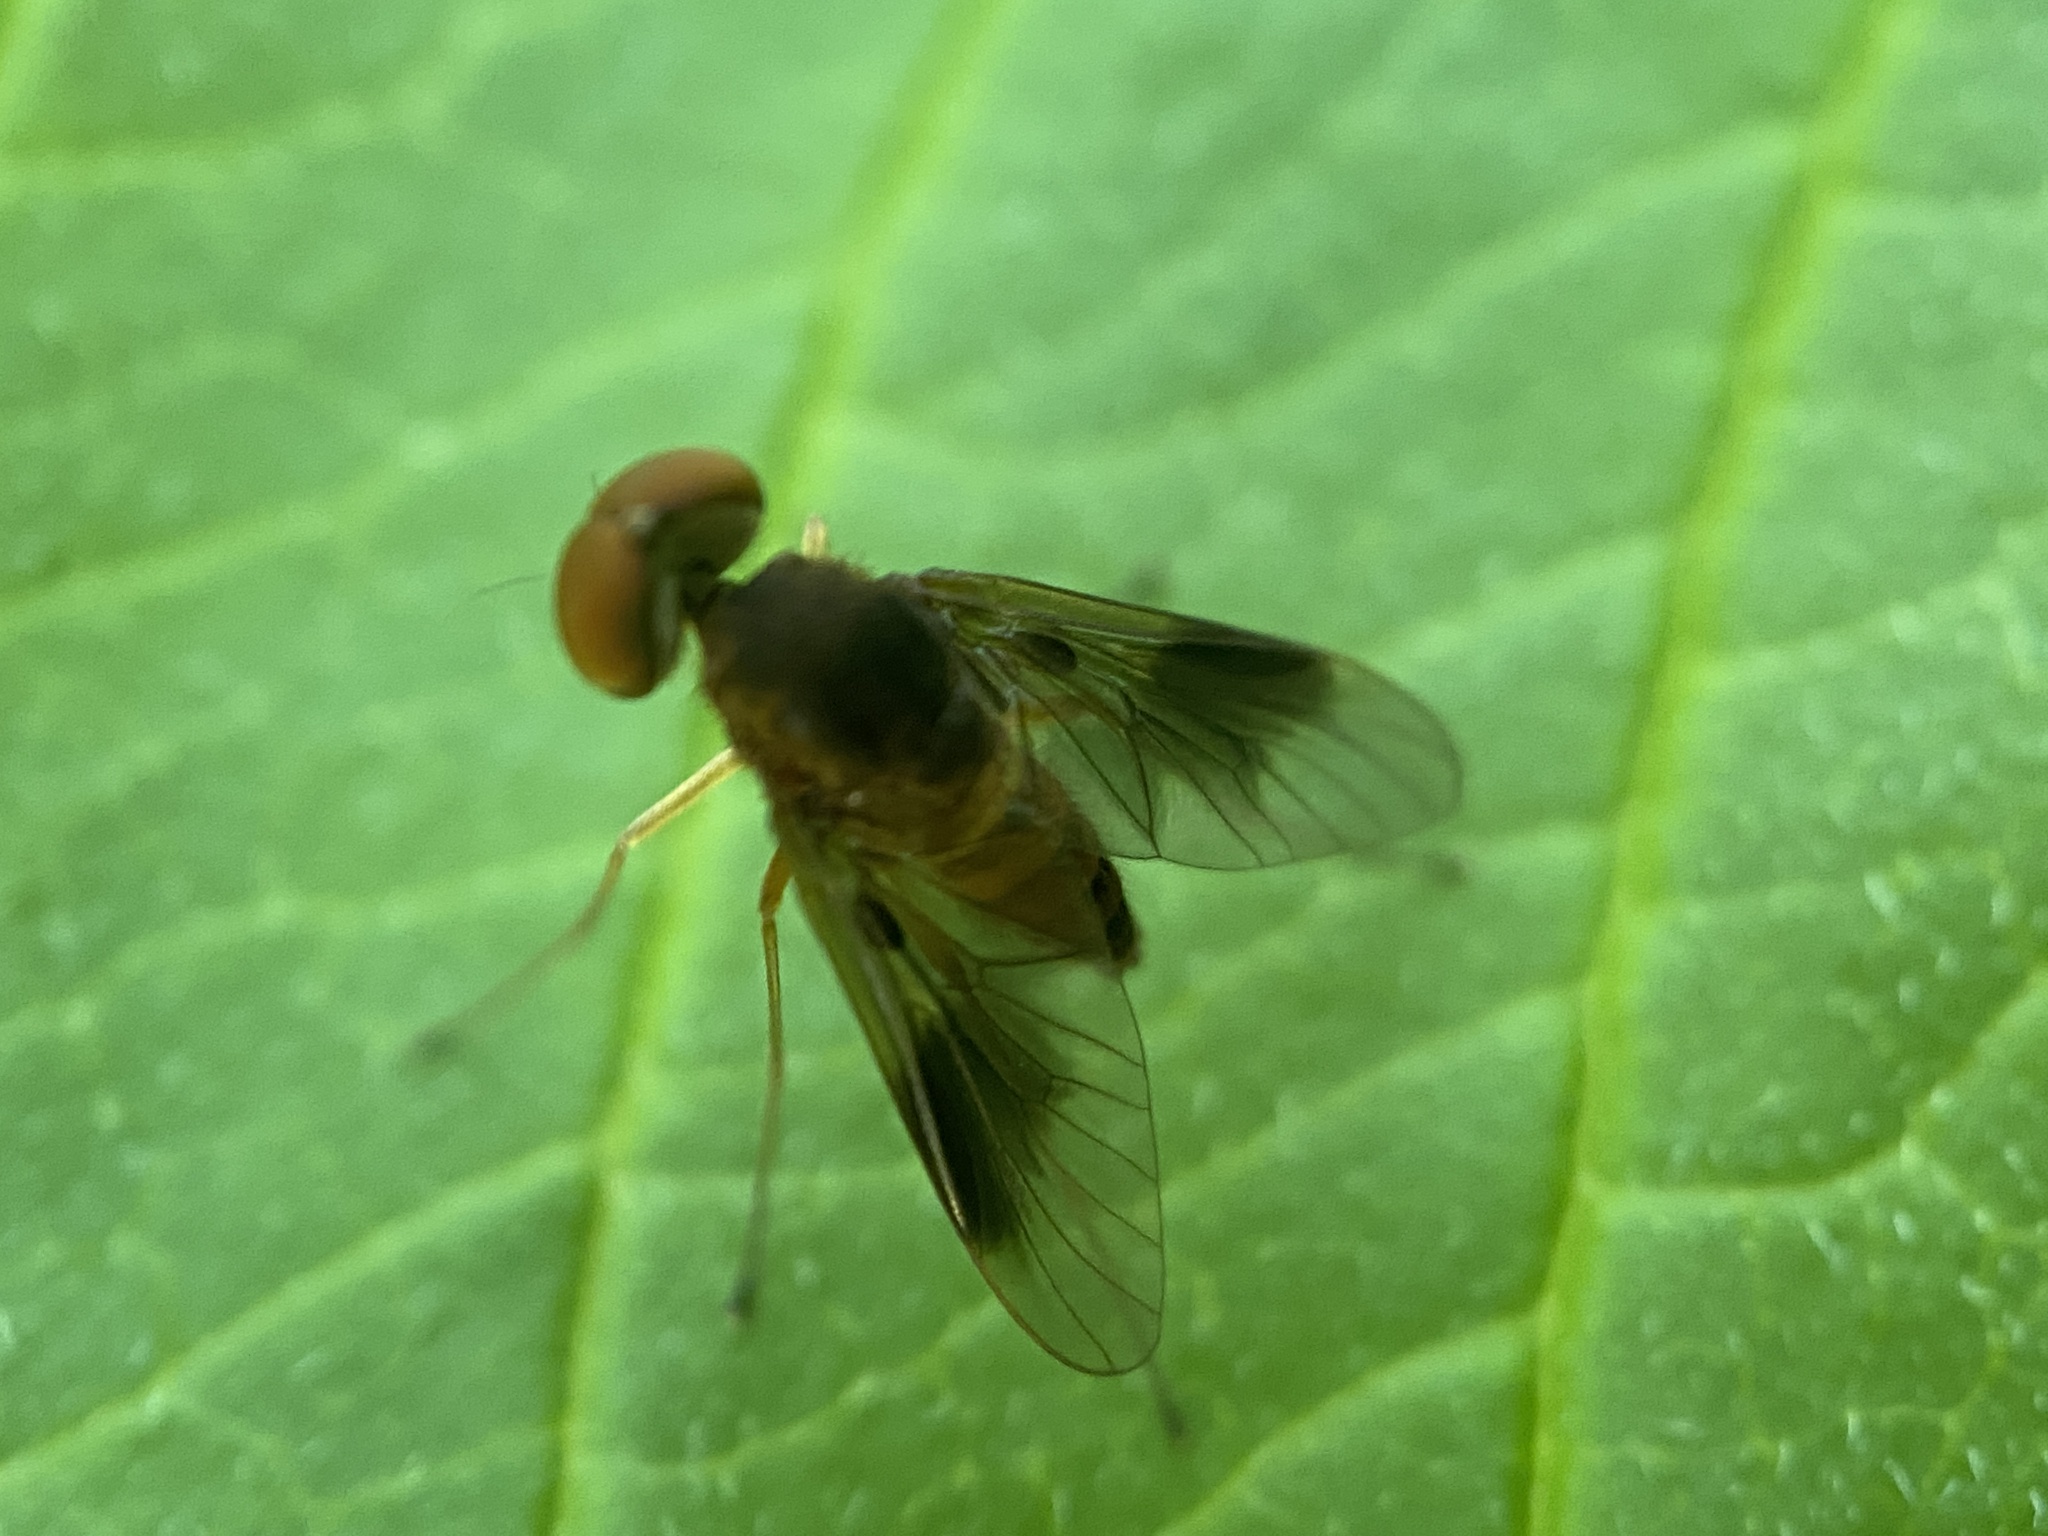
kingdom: Animalia
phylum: Arthropoda
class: Insecta
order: Diptera
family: Rhagionidae
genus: Chrysopilus
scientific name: Chrysopilus quadratus
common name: Quadrate snipe fly
